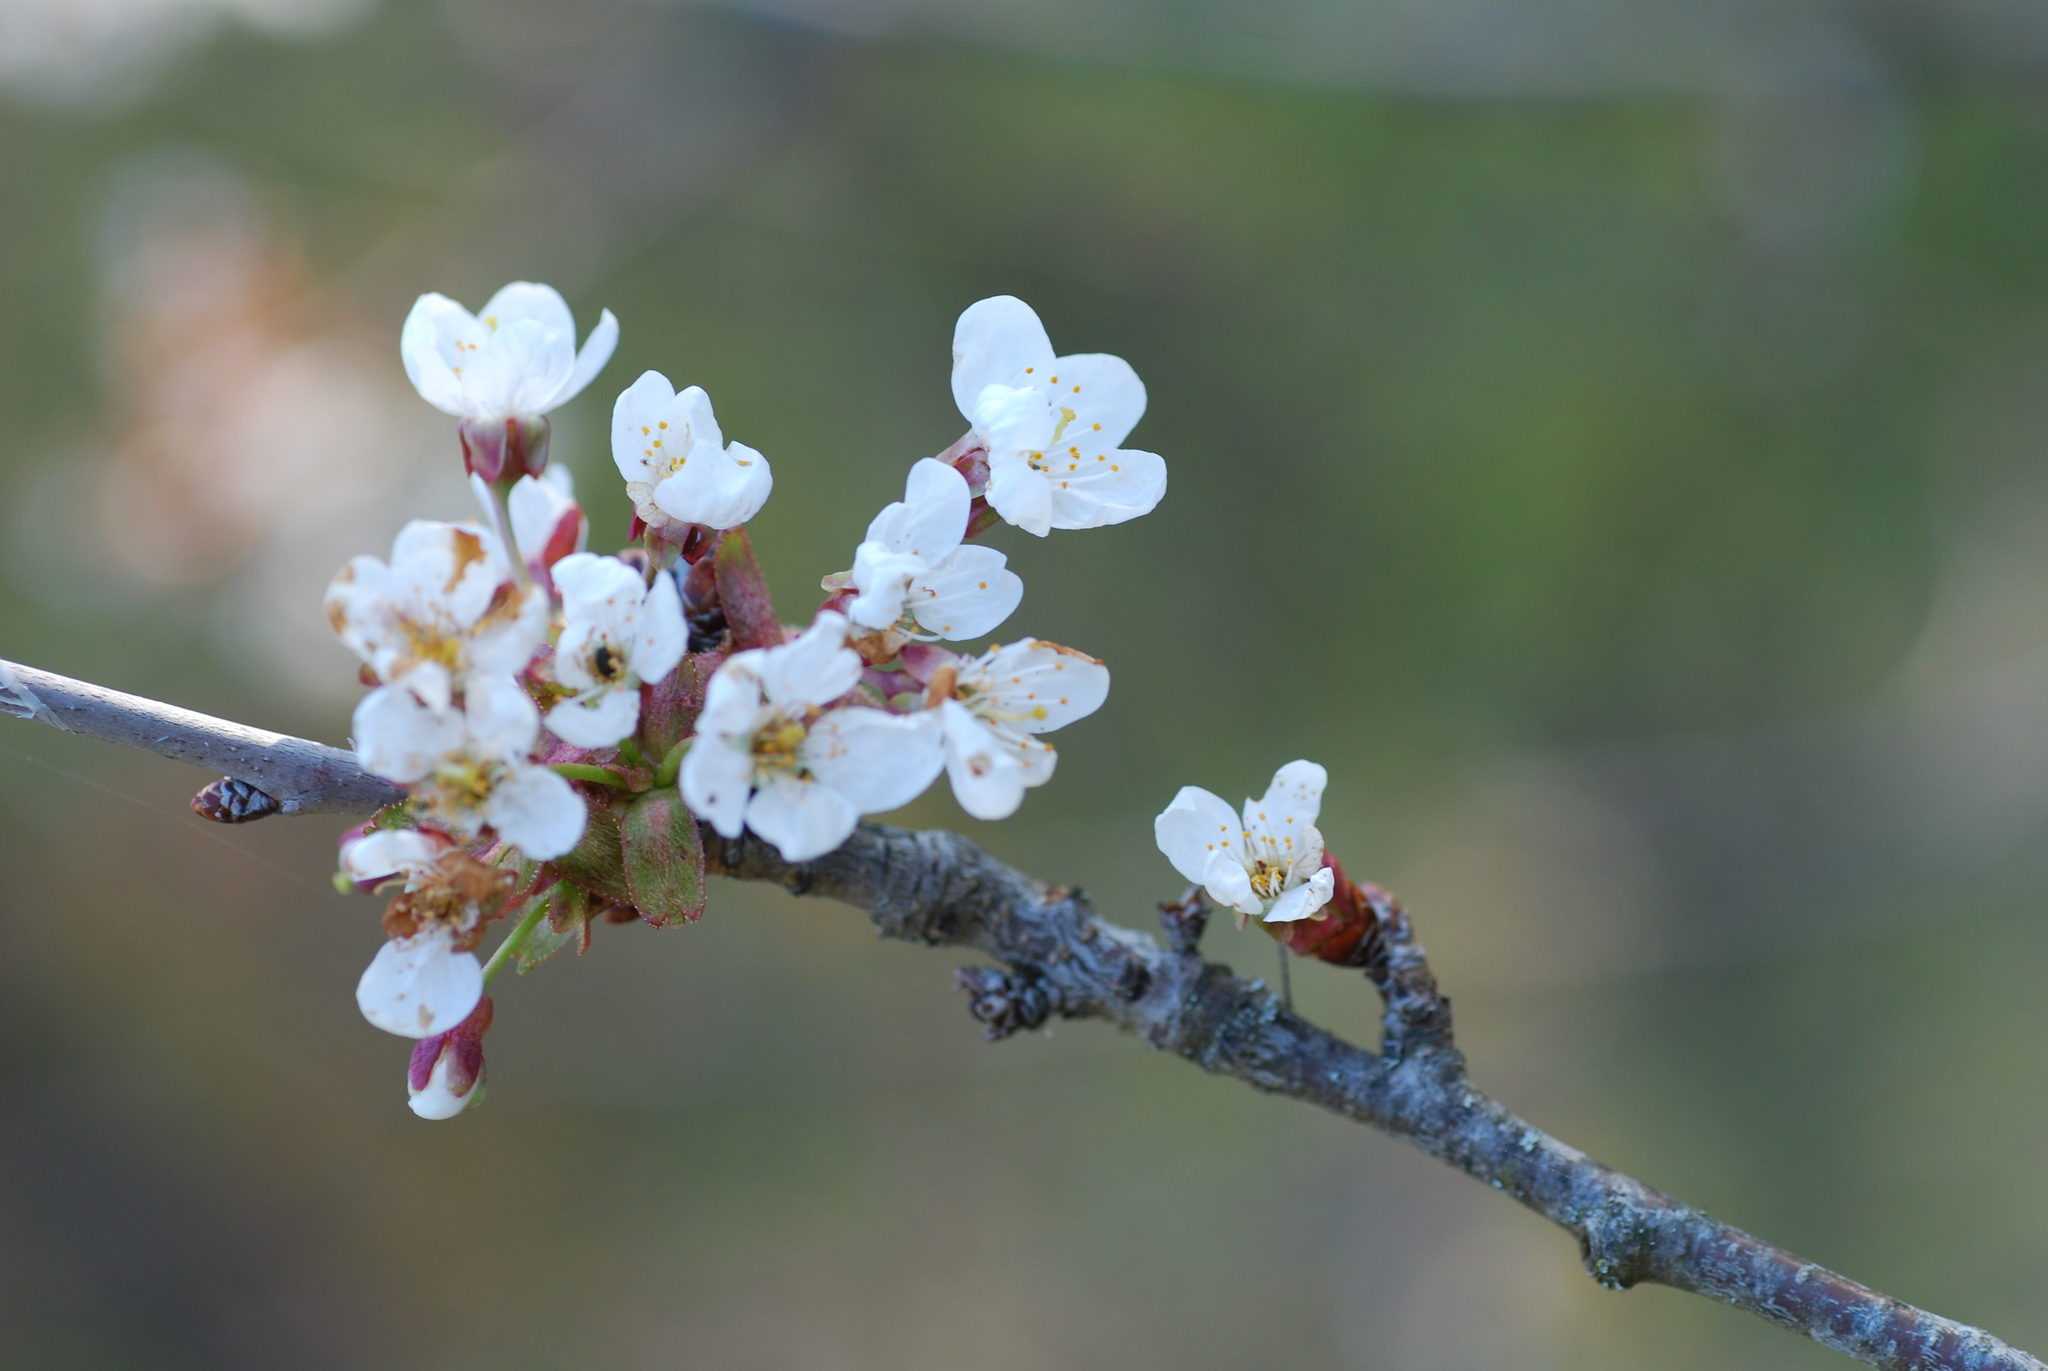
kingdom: Plantae
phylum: Tracheophyta
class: Magnoliopsida
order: Rosales
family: Rosaceae
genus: Prunus
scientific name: Prunus avium
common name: Sweet cherry
